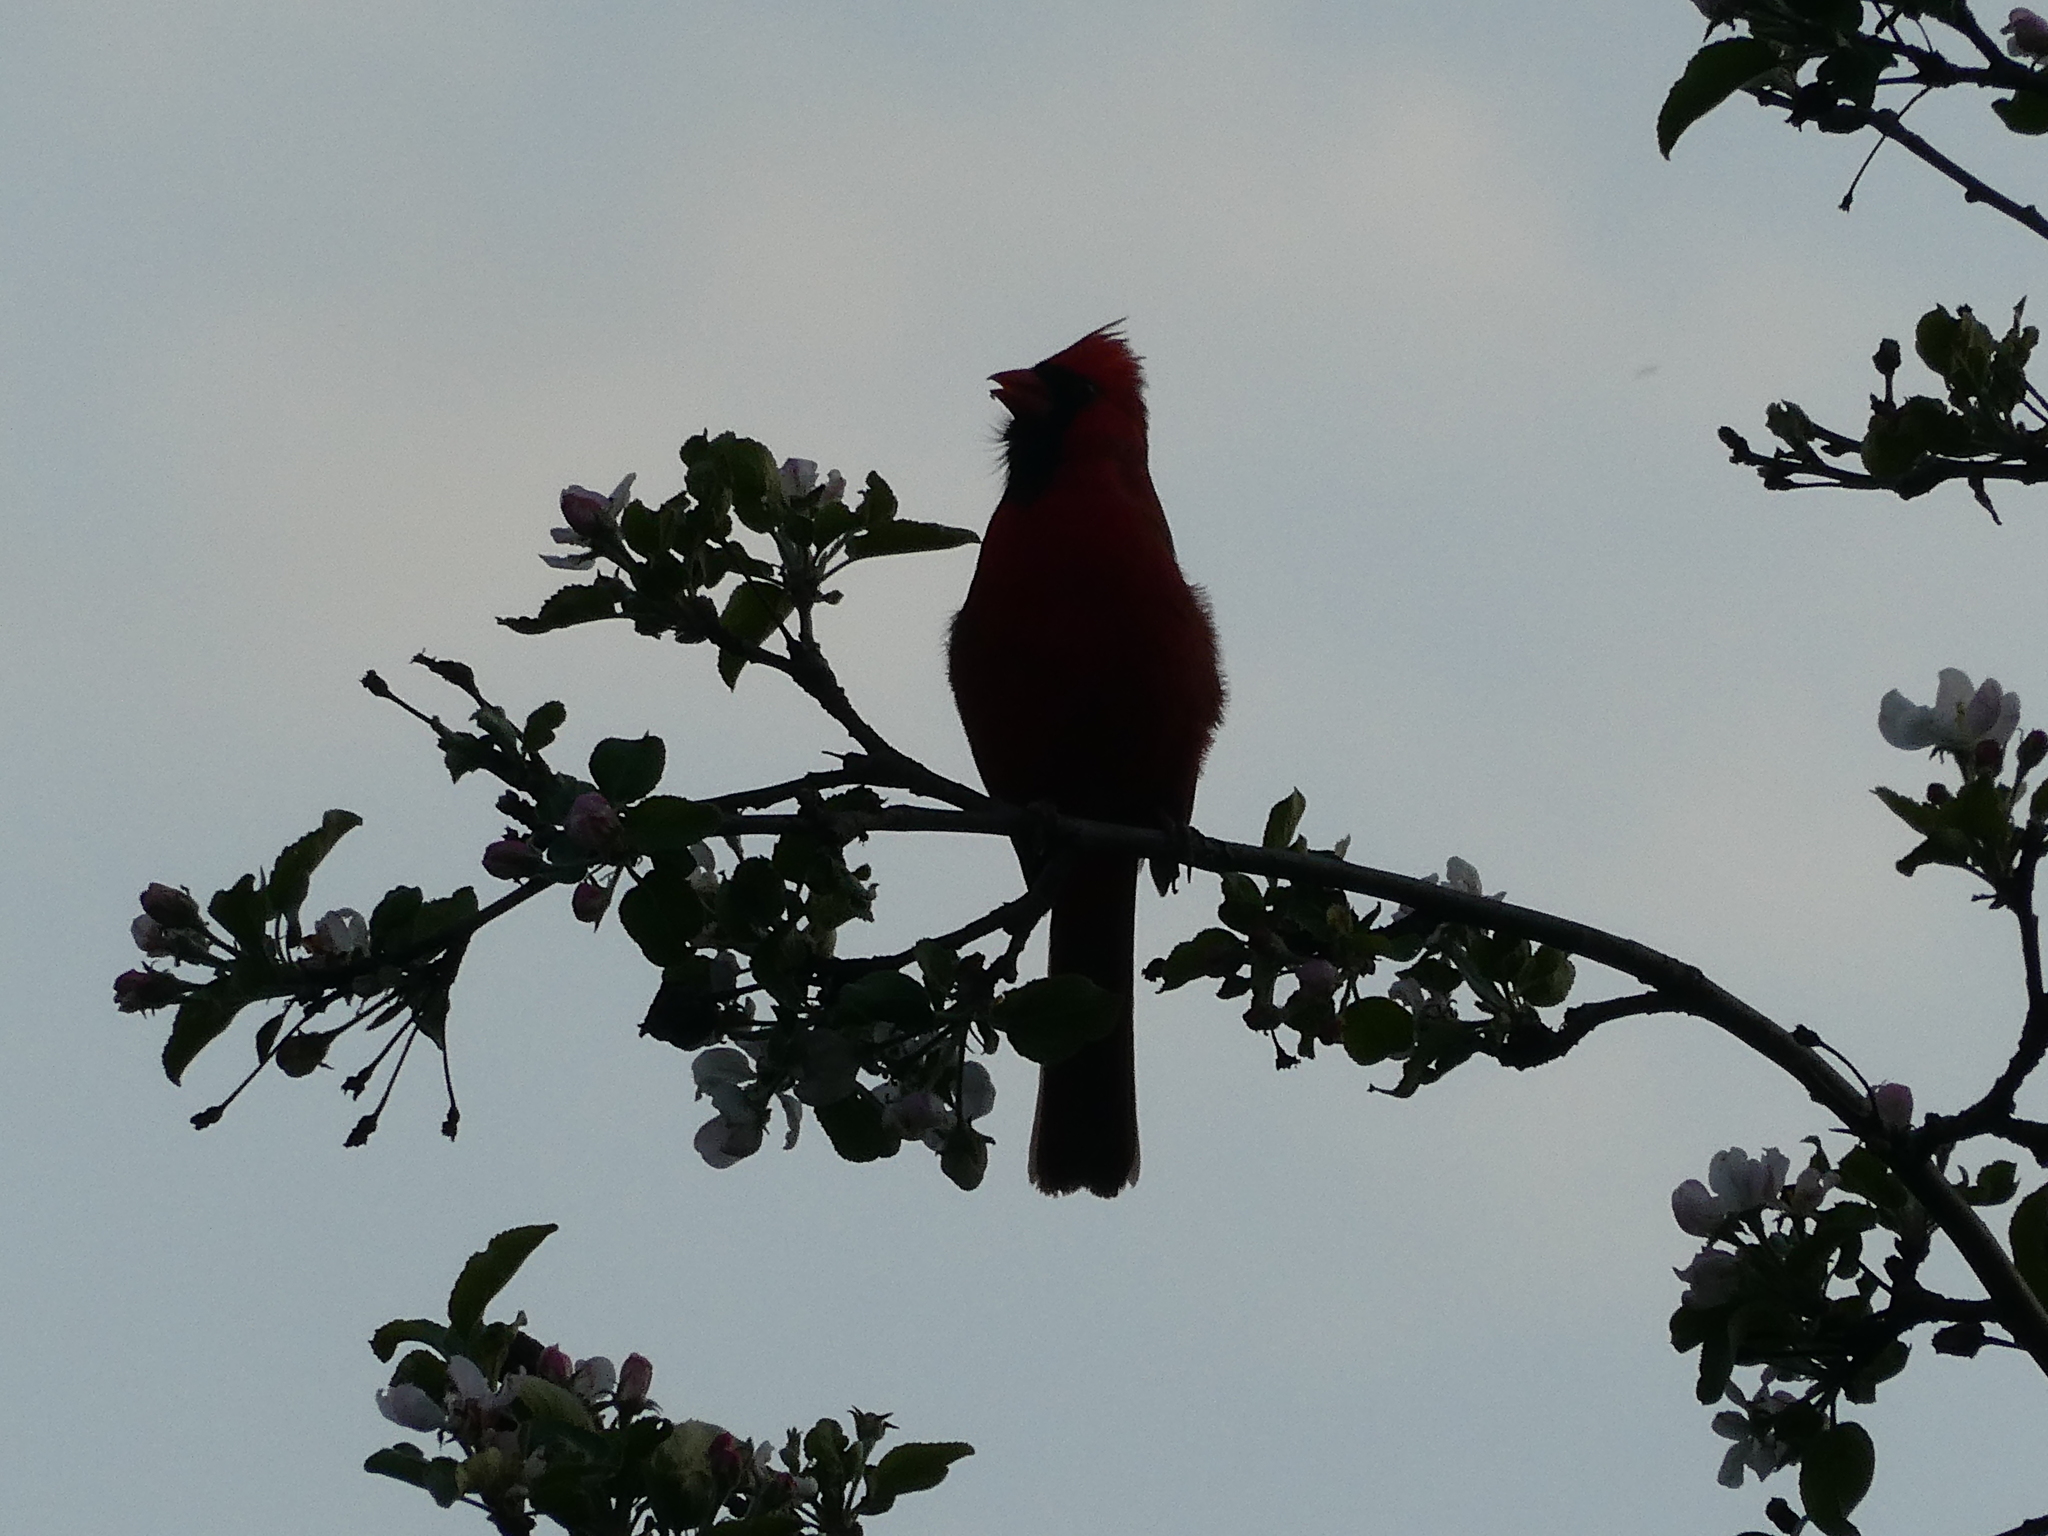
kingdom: Animalia
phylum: Chordata
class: Aves
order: Passeriformes
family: Cardinalidae
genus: Cardinalis
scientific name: Cardinalis cardinalis
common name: Northern cardinal
